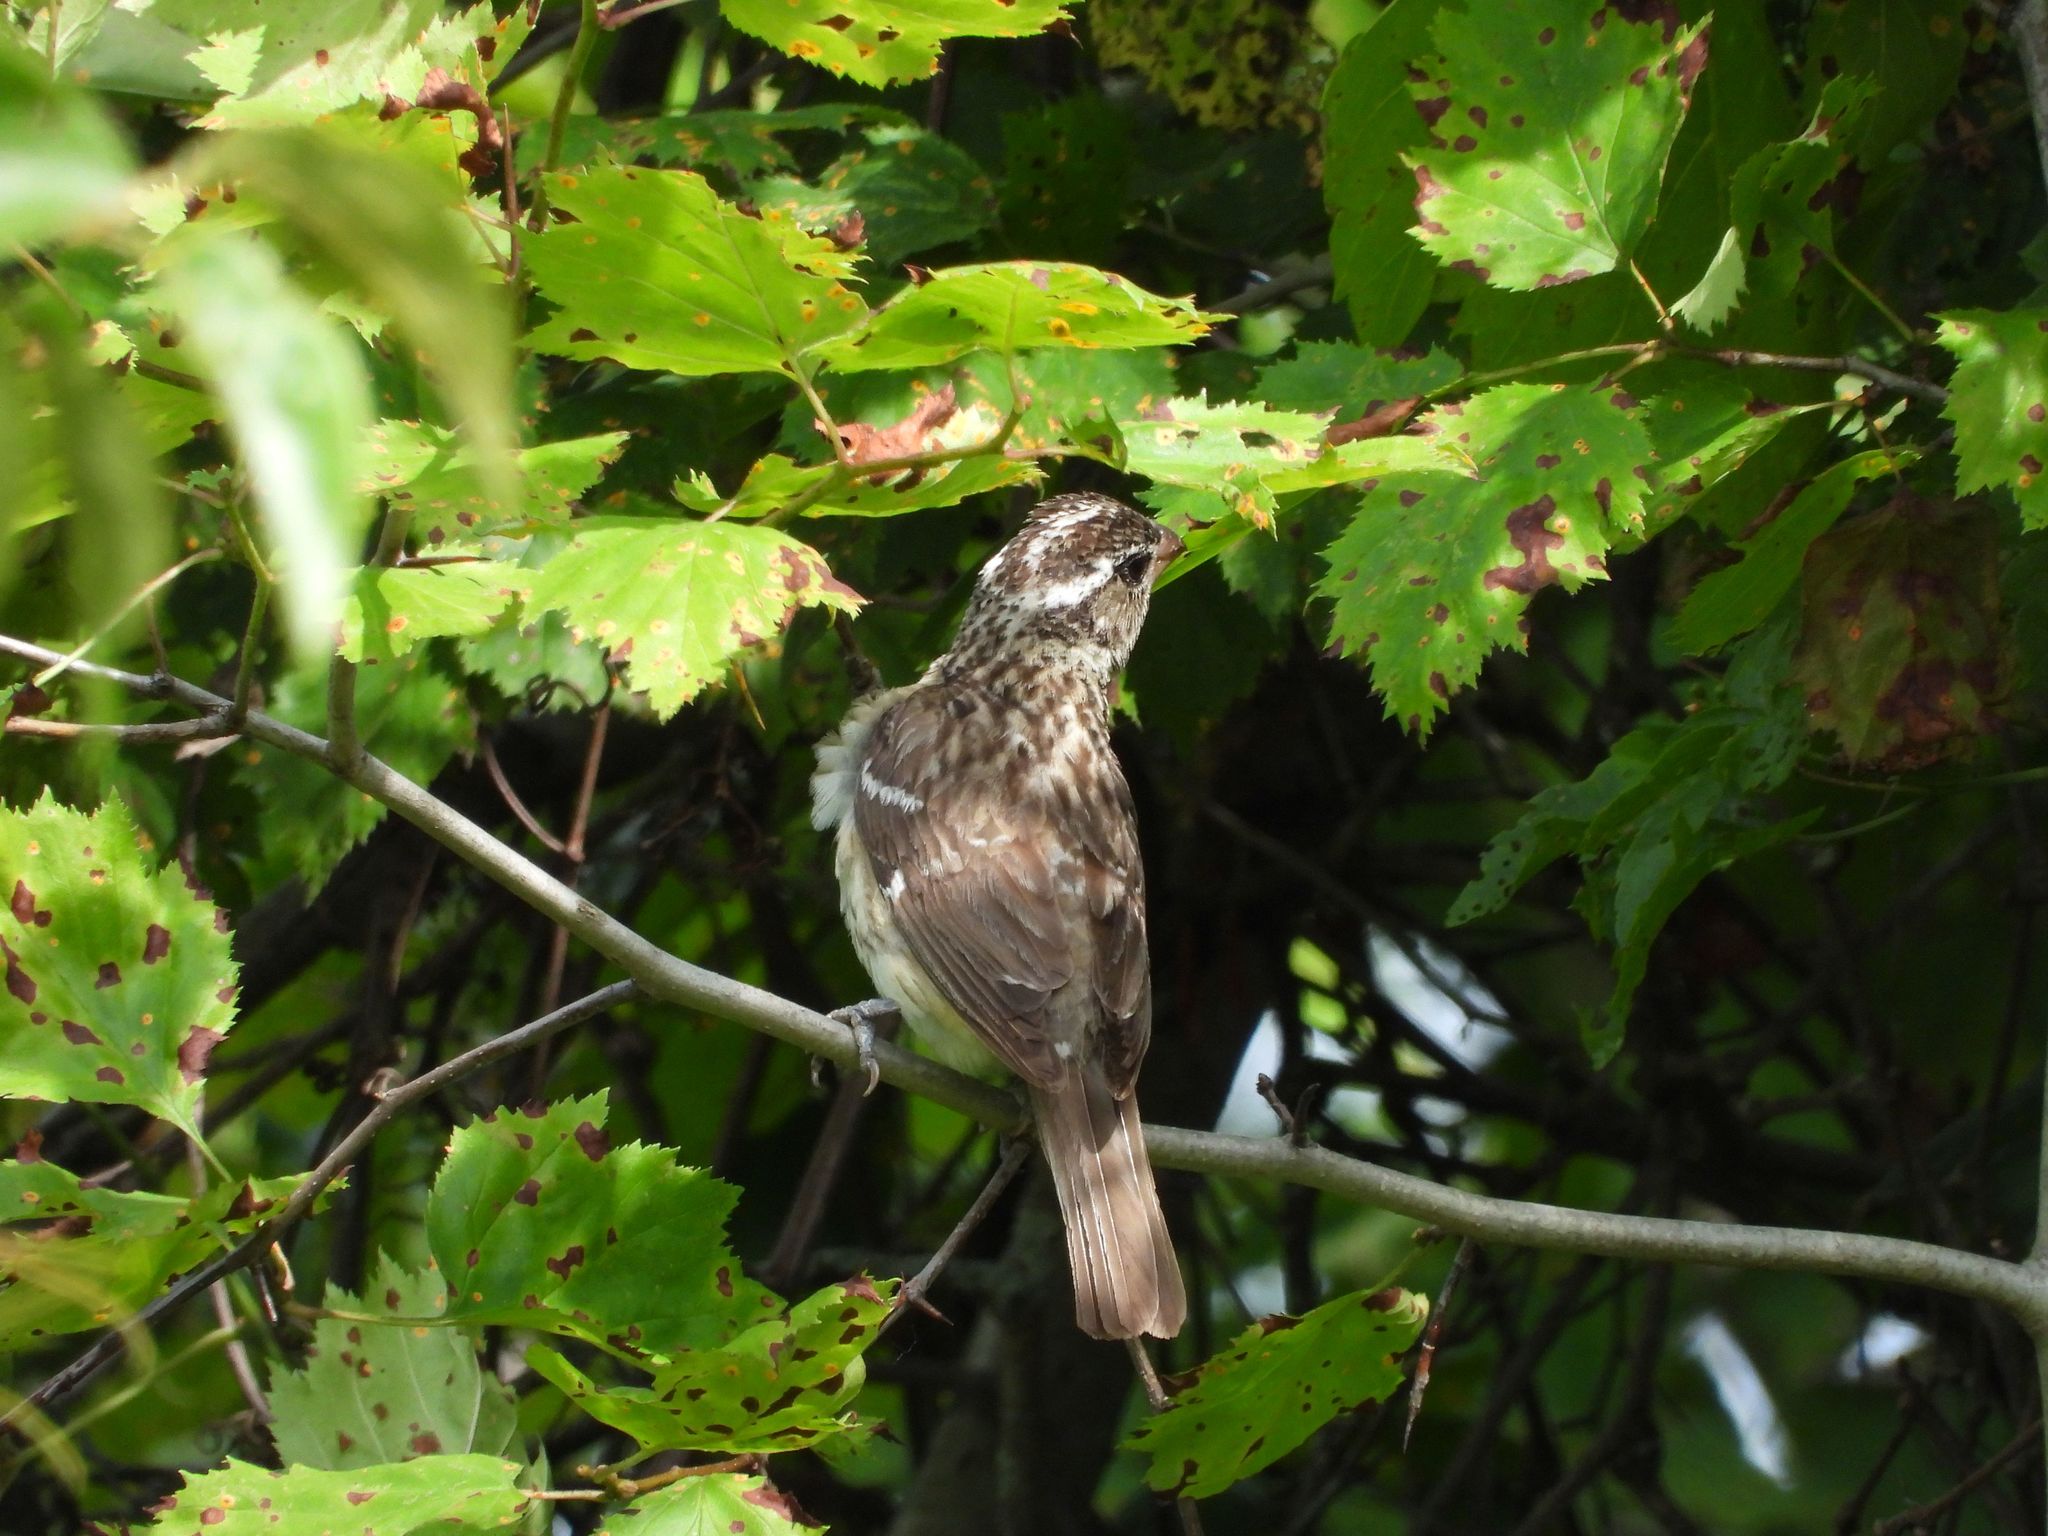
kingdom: Animalia
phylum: Chordata
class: Aves
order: Passeriformes
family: Cardinalidae
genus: Pheucticus
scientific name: Pheucticus ludovicianus
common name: Rose-breasted grosbeak
